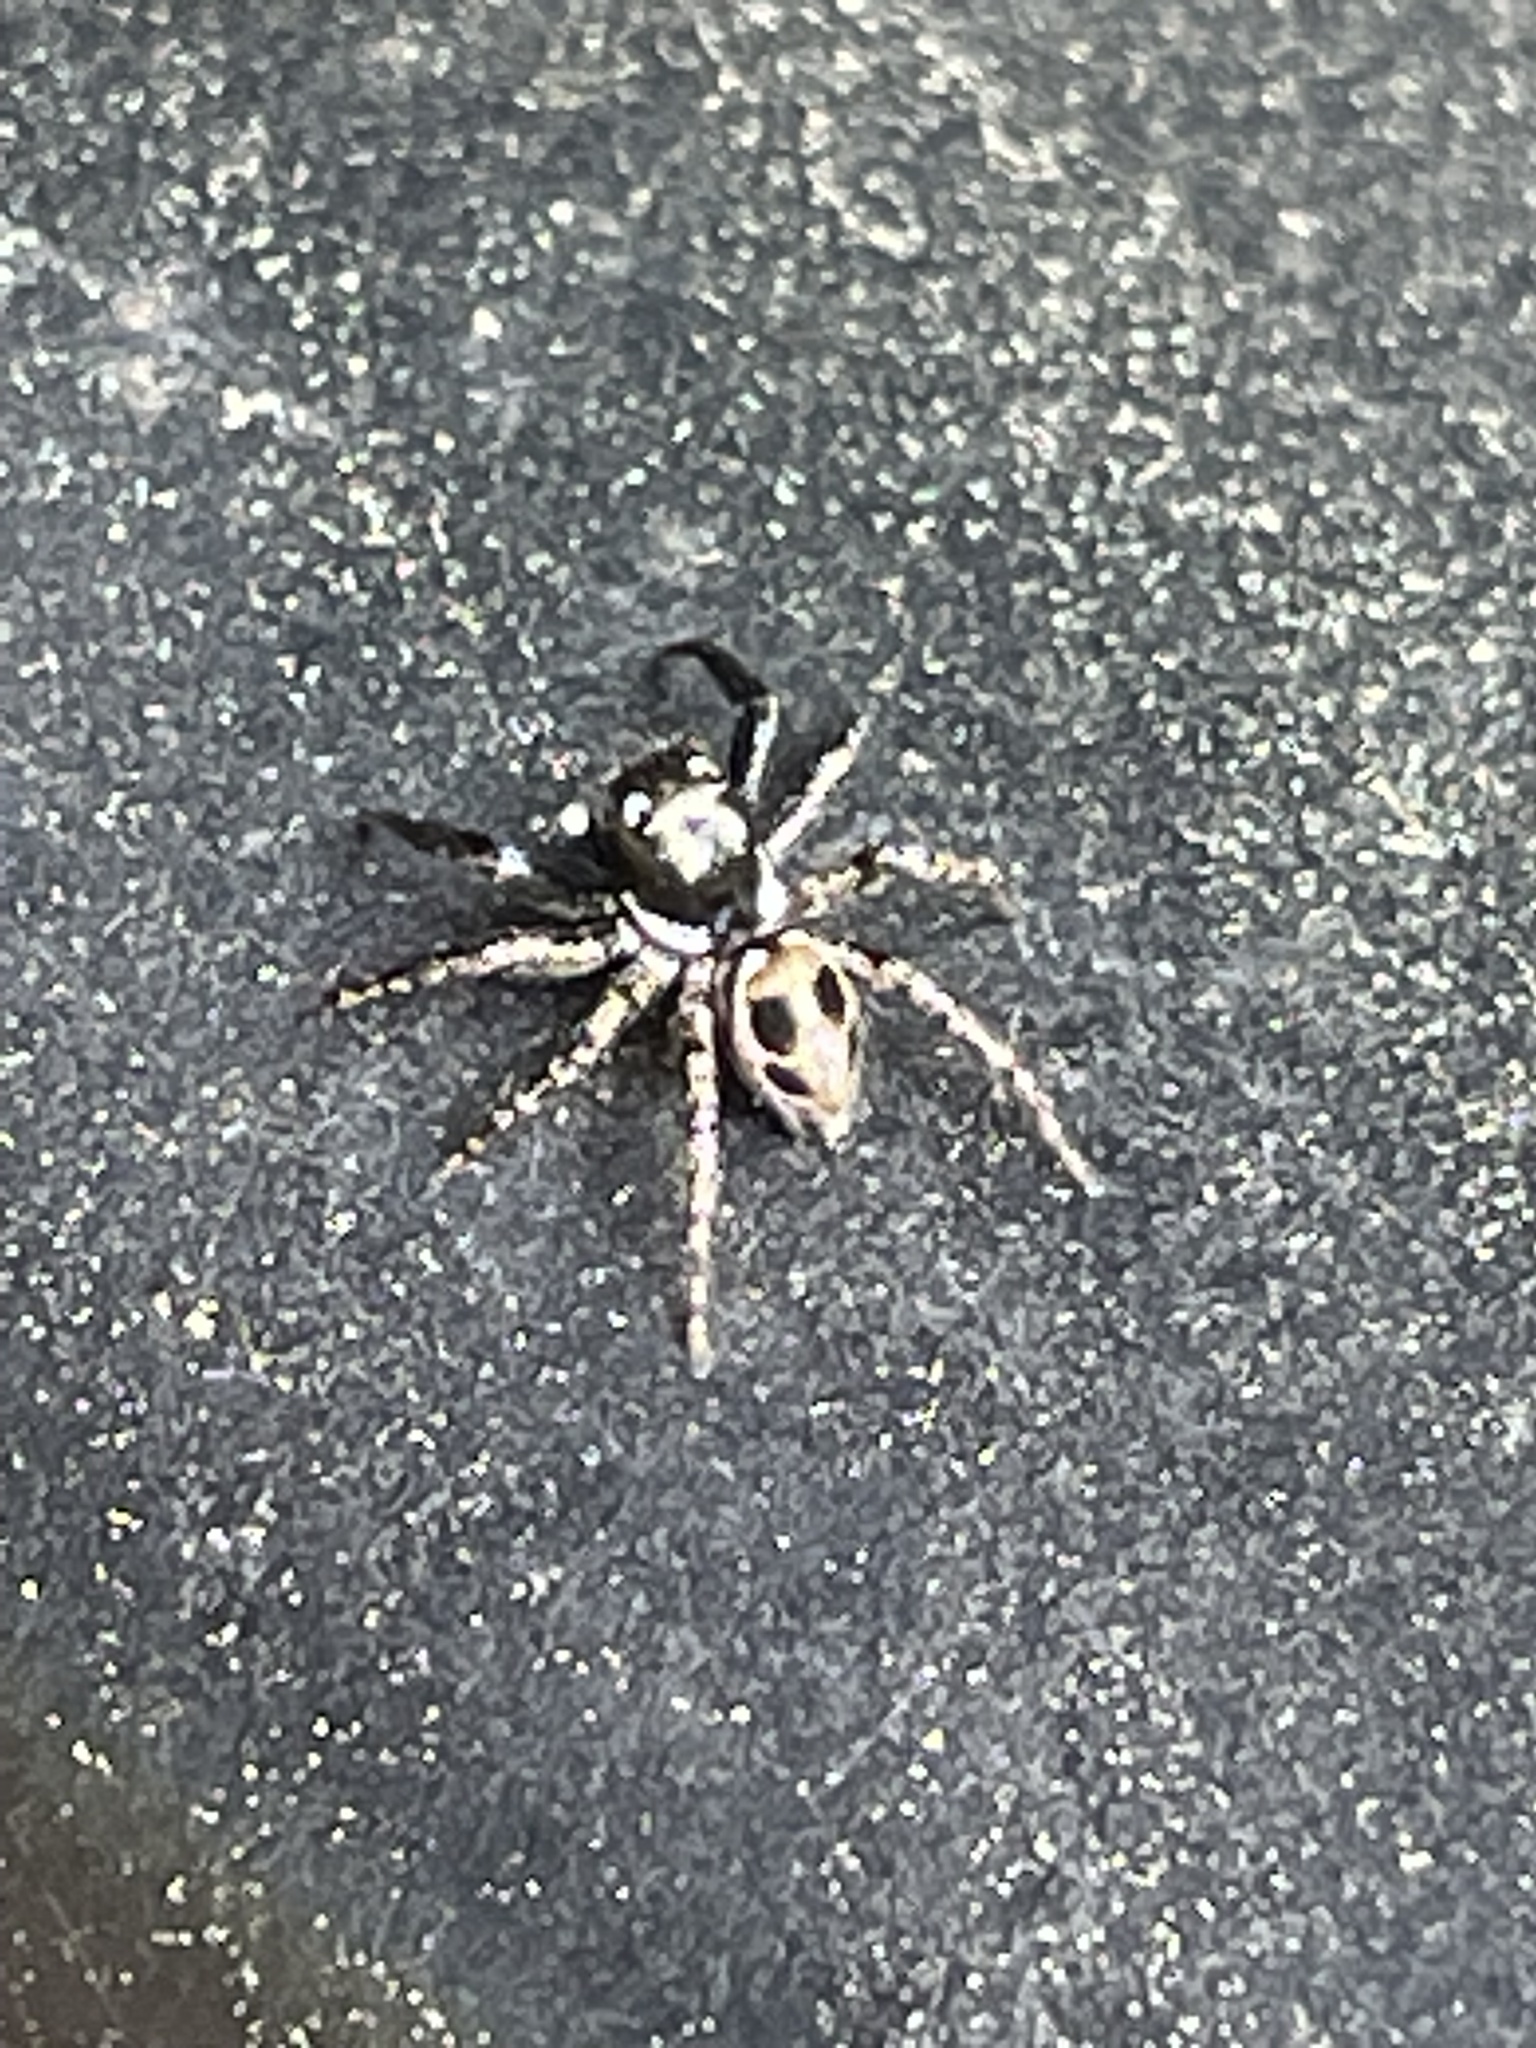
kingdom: Animalia
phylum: Arthropoda
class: Arachnida
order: Araneae
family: Salticidae
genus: Anasaitis
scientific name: Anasaitis canosa
